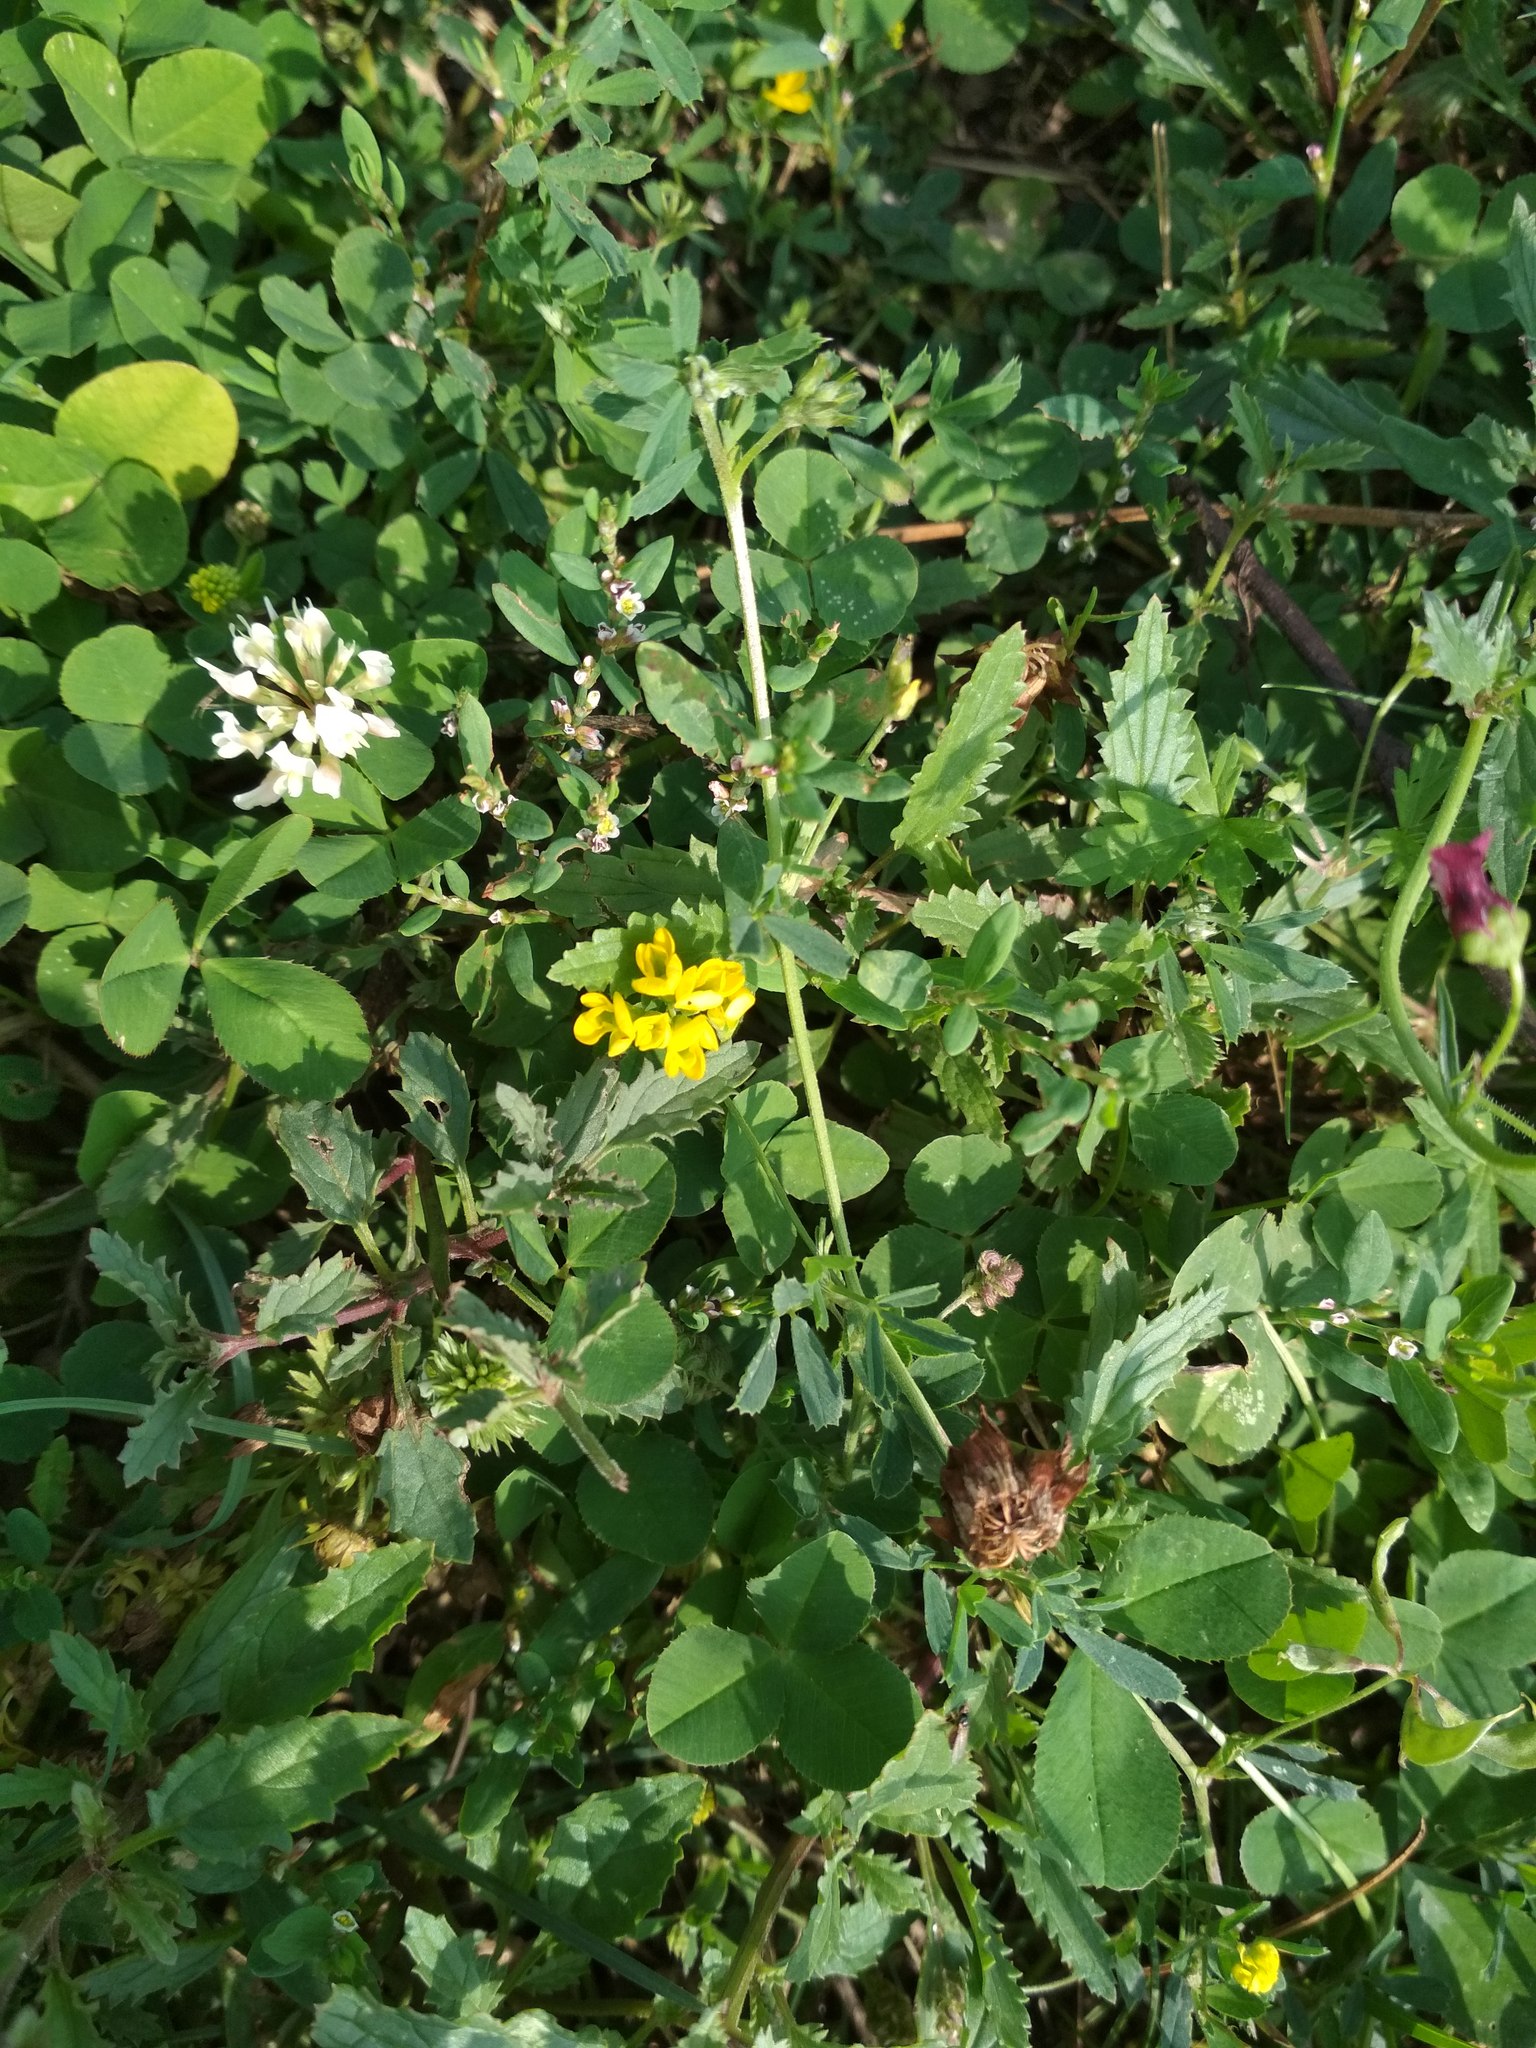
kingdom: Plantae
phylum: Tracheophyta
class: Magnoliopsida
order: Fabales
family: Fabaceae
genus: Trifolium
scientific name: Trifolium repens
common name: White clover
